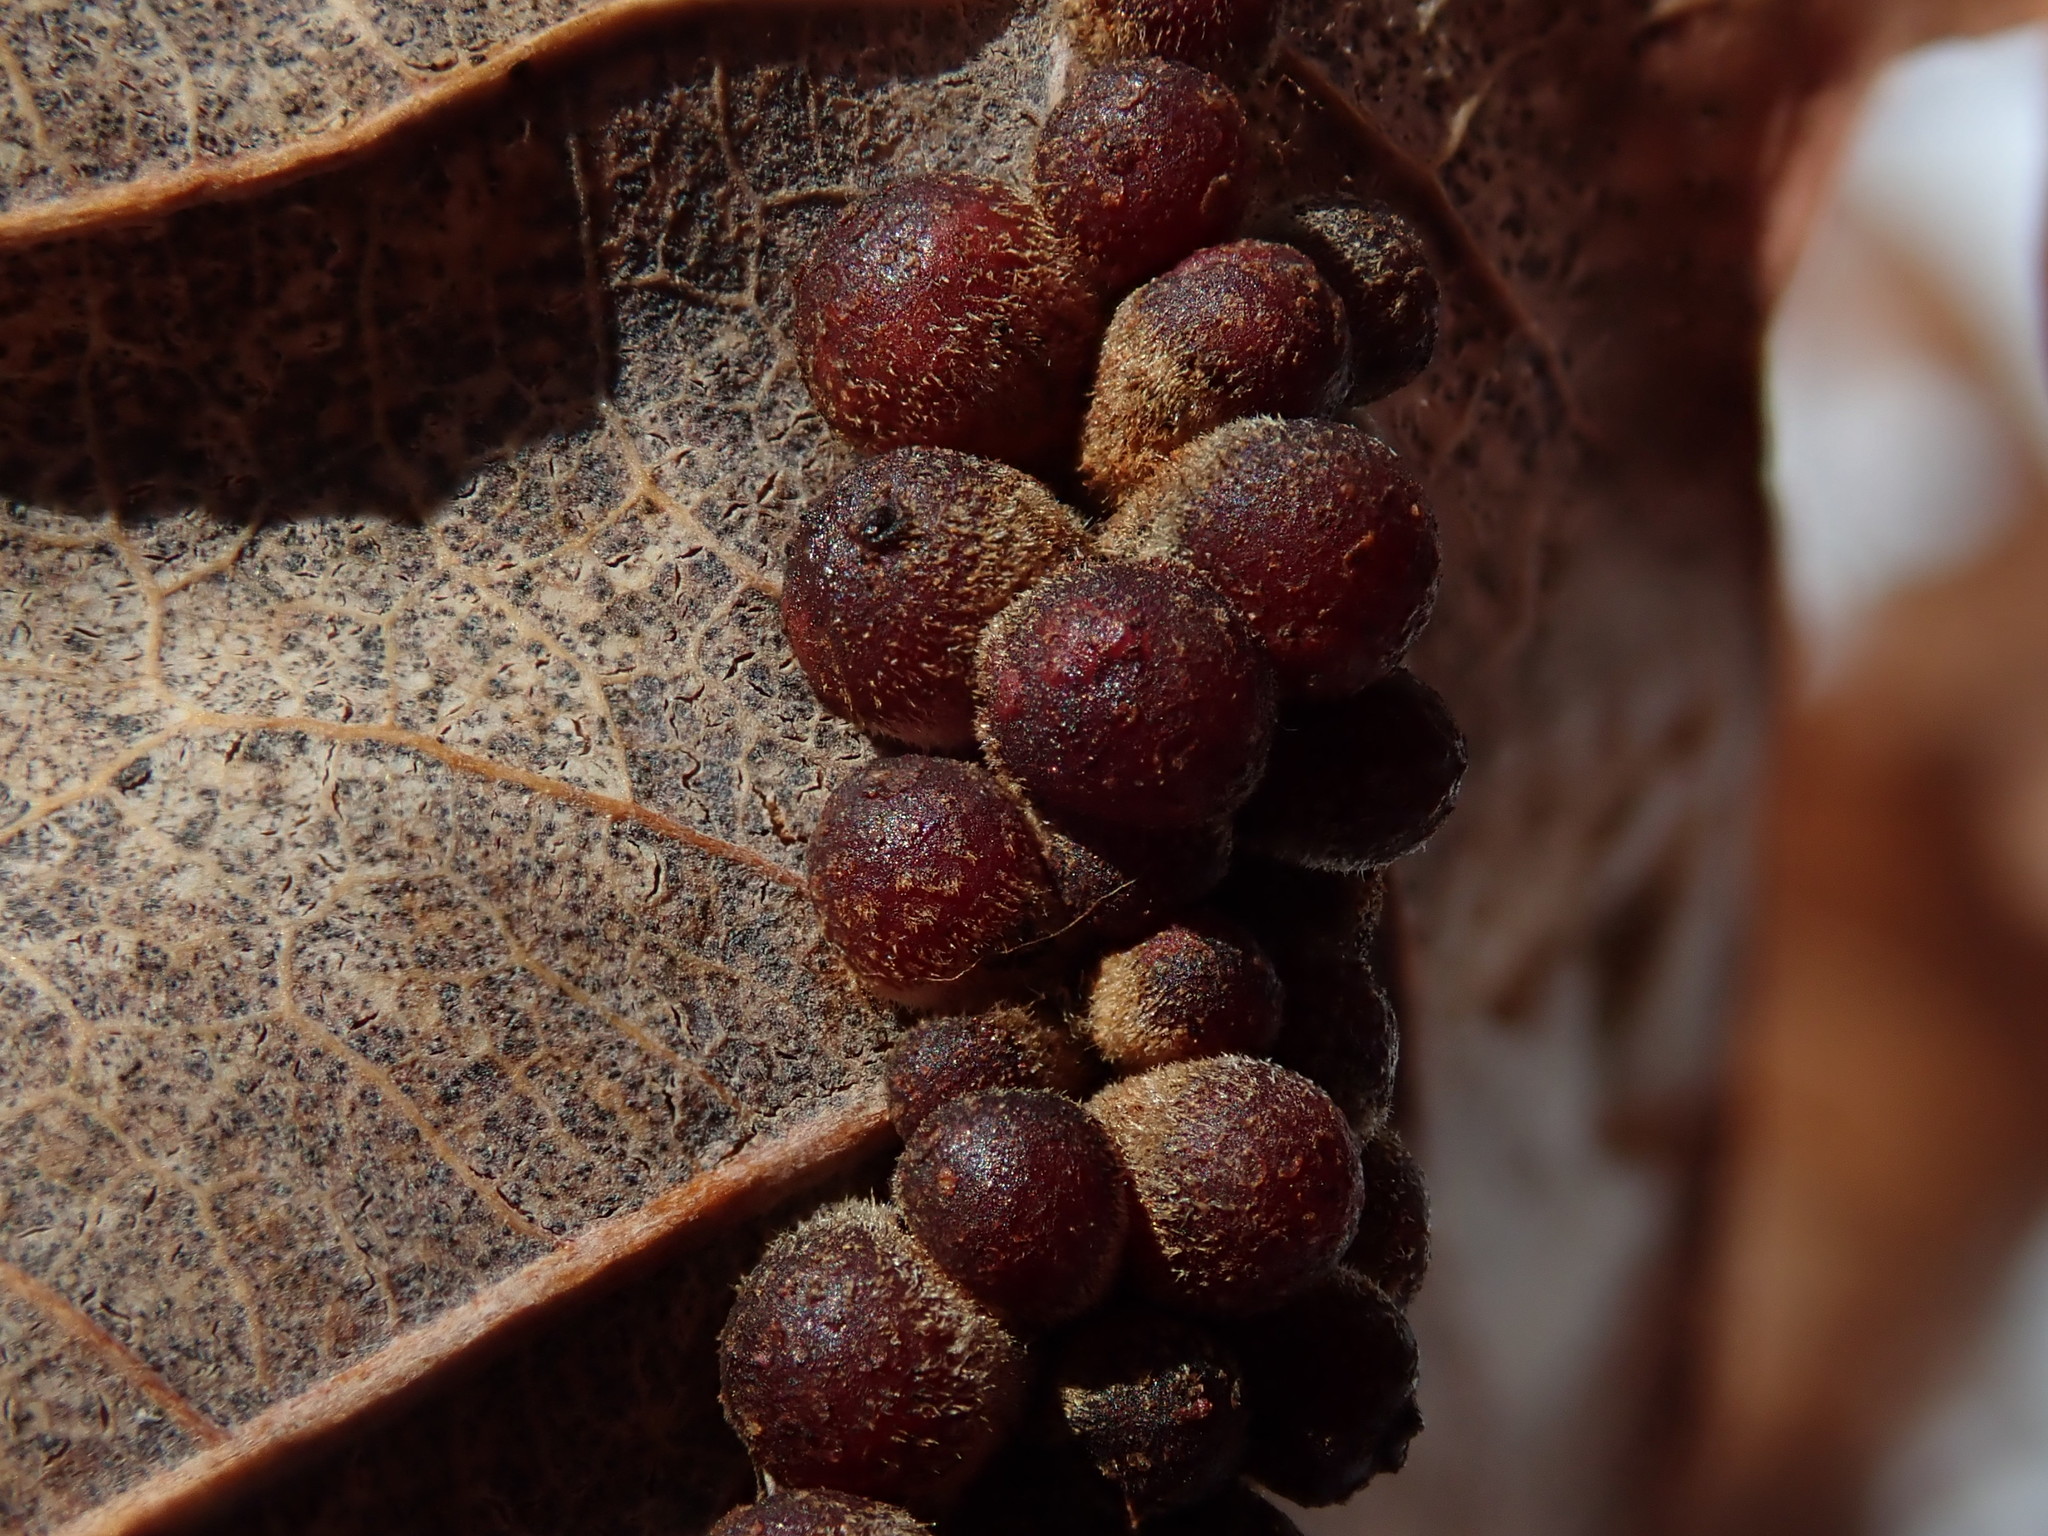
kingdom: Animalia
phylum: Arthropoda
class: Insecta
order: Hymenoptera
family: Cynipidae
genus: Andricus
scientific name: Andricus
